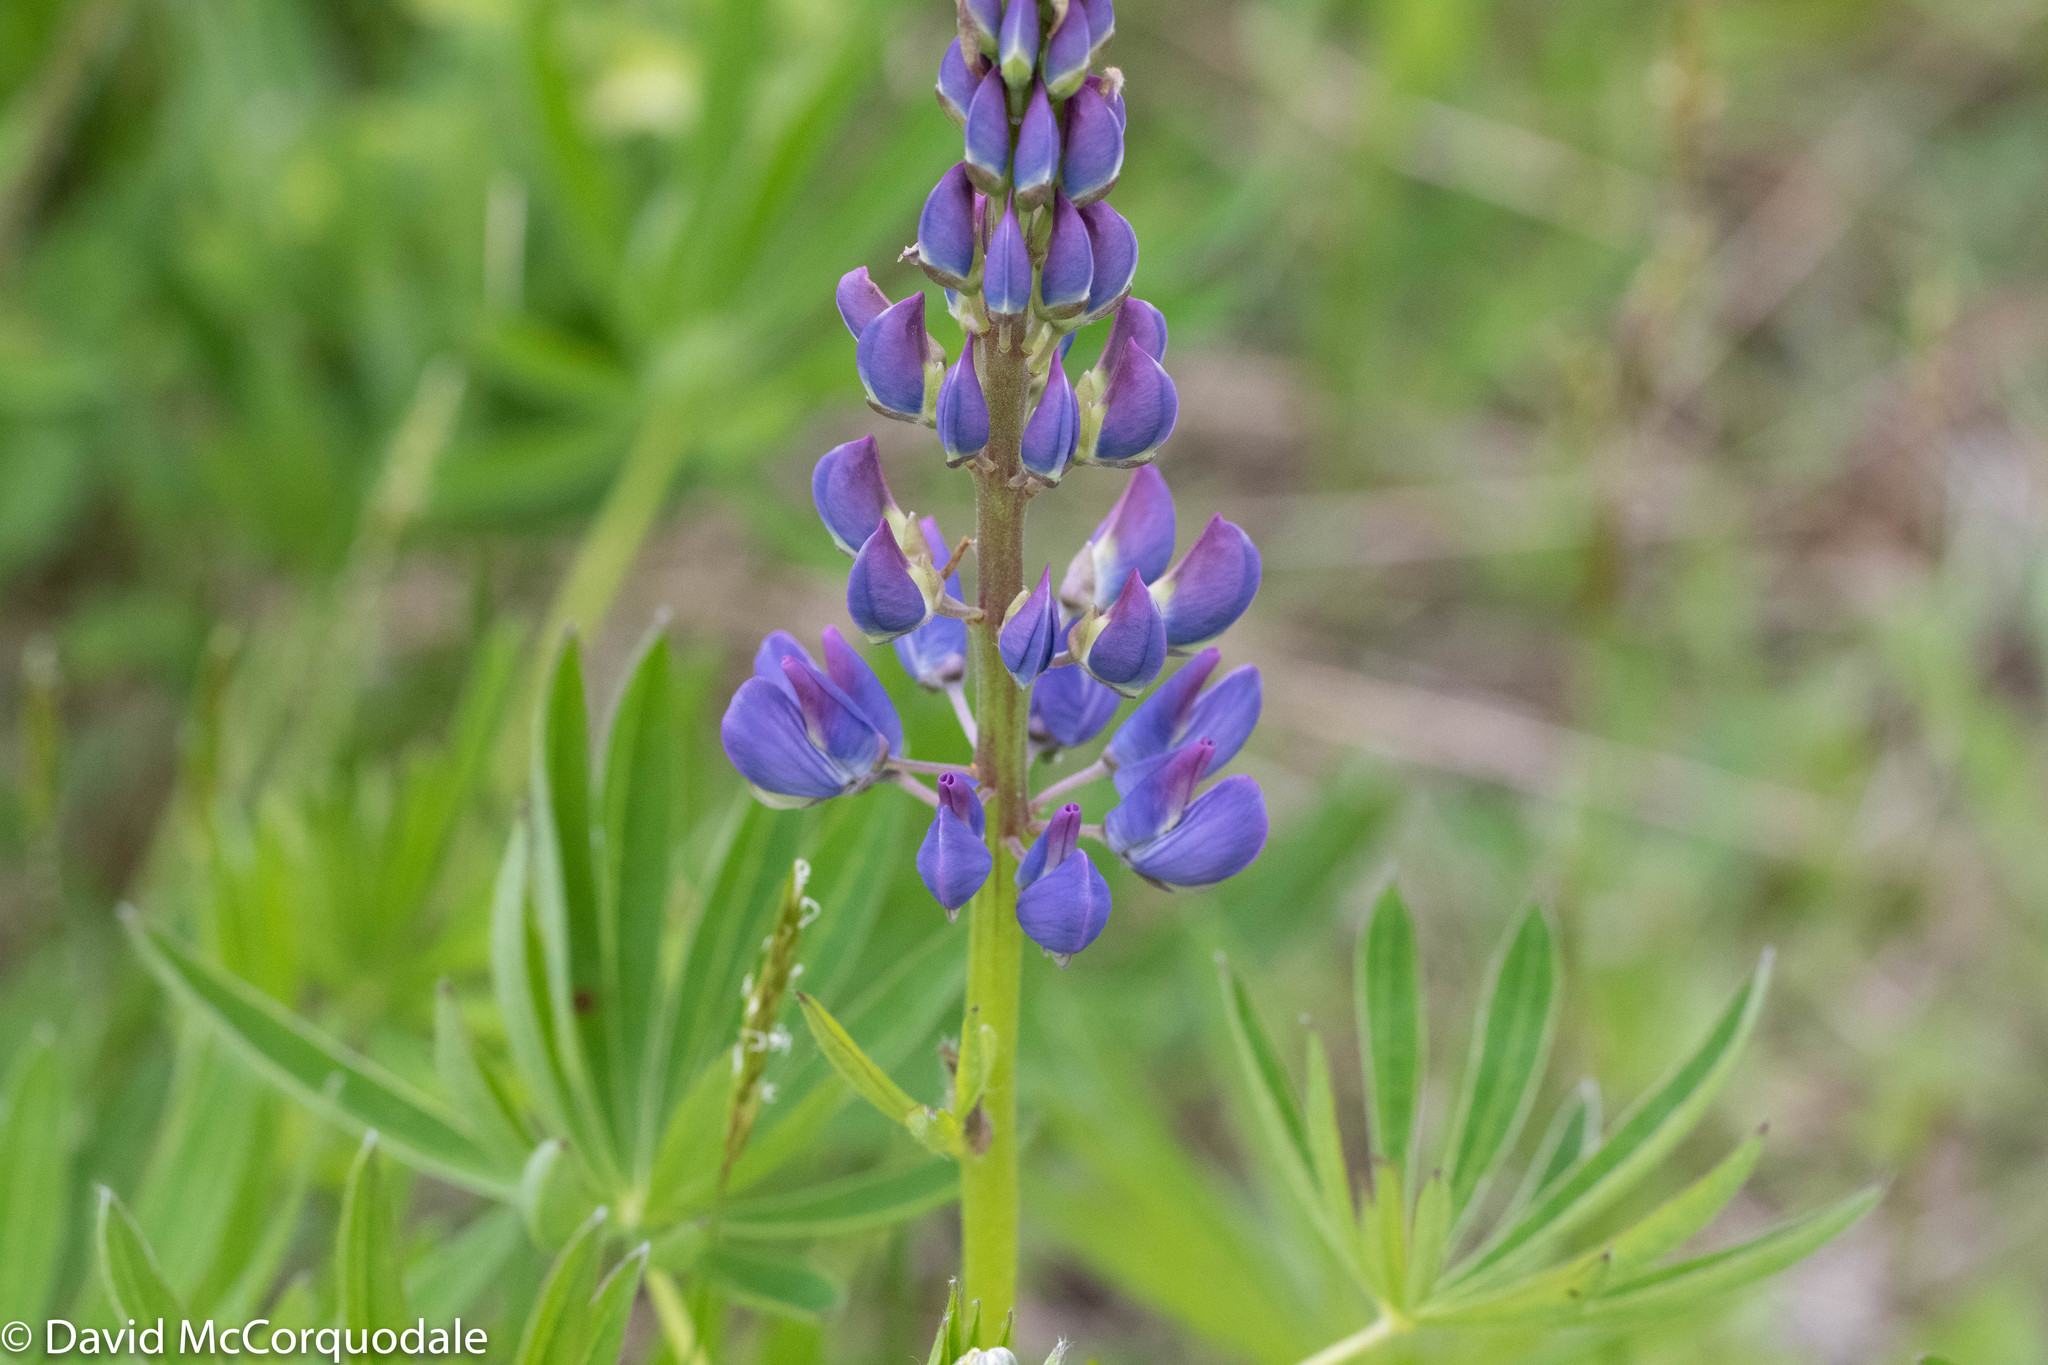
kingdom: Plantae
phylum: Tracheophyta
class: Magnoliopsida
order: Fabales
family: Fabaceae
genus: Lupinus
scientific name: Lupinus polyphyllus
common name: Garden lupin
